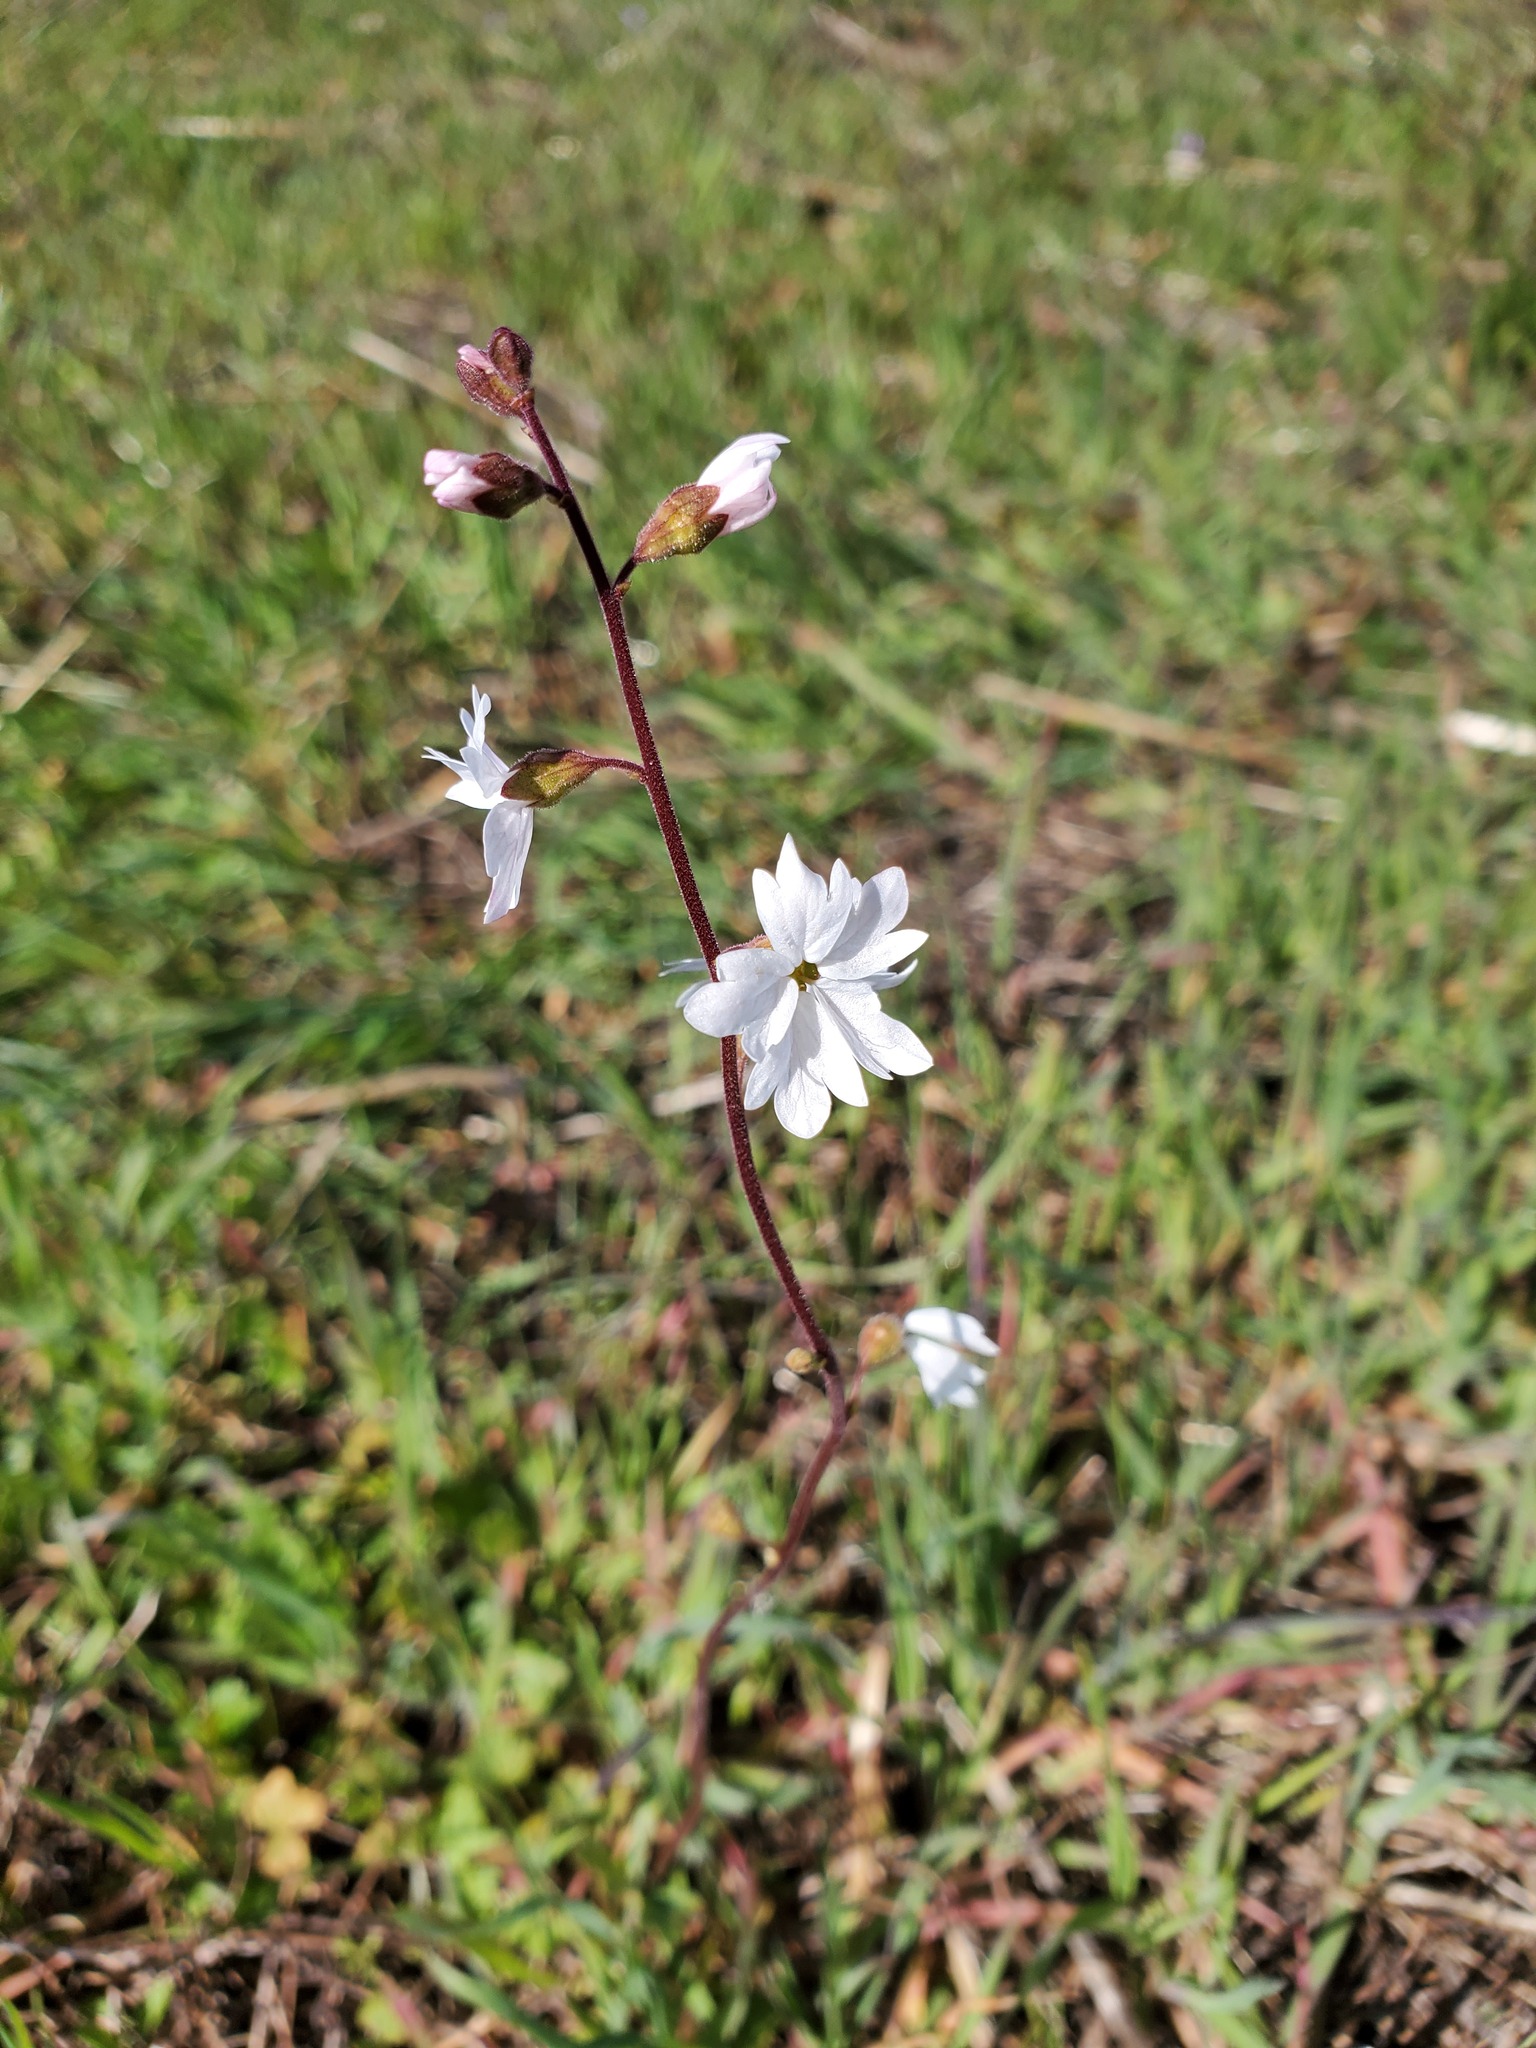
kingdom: Plantae
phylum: Tracheophyta
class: Magnoliopsida
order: Saxifragales
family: Saxifragaceae
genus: Lithophragma
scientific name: Lithophragma affine
